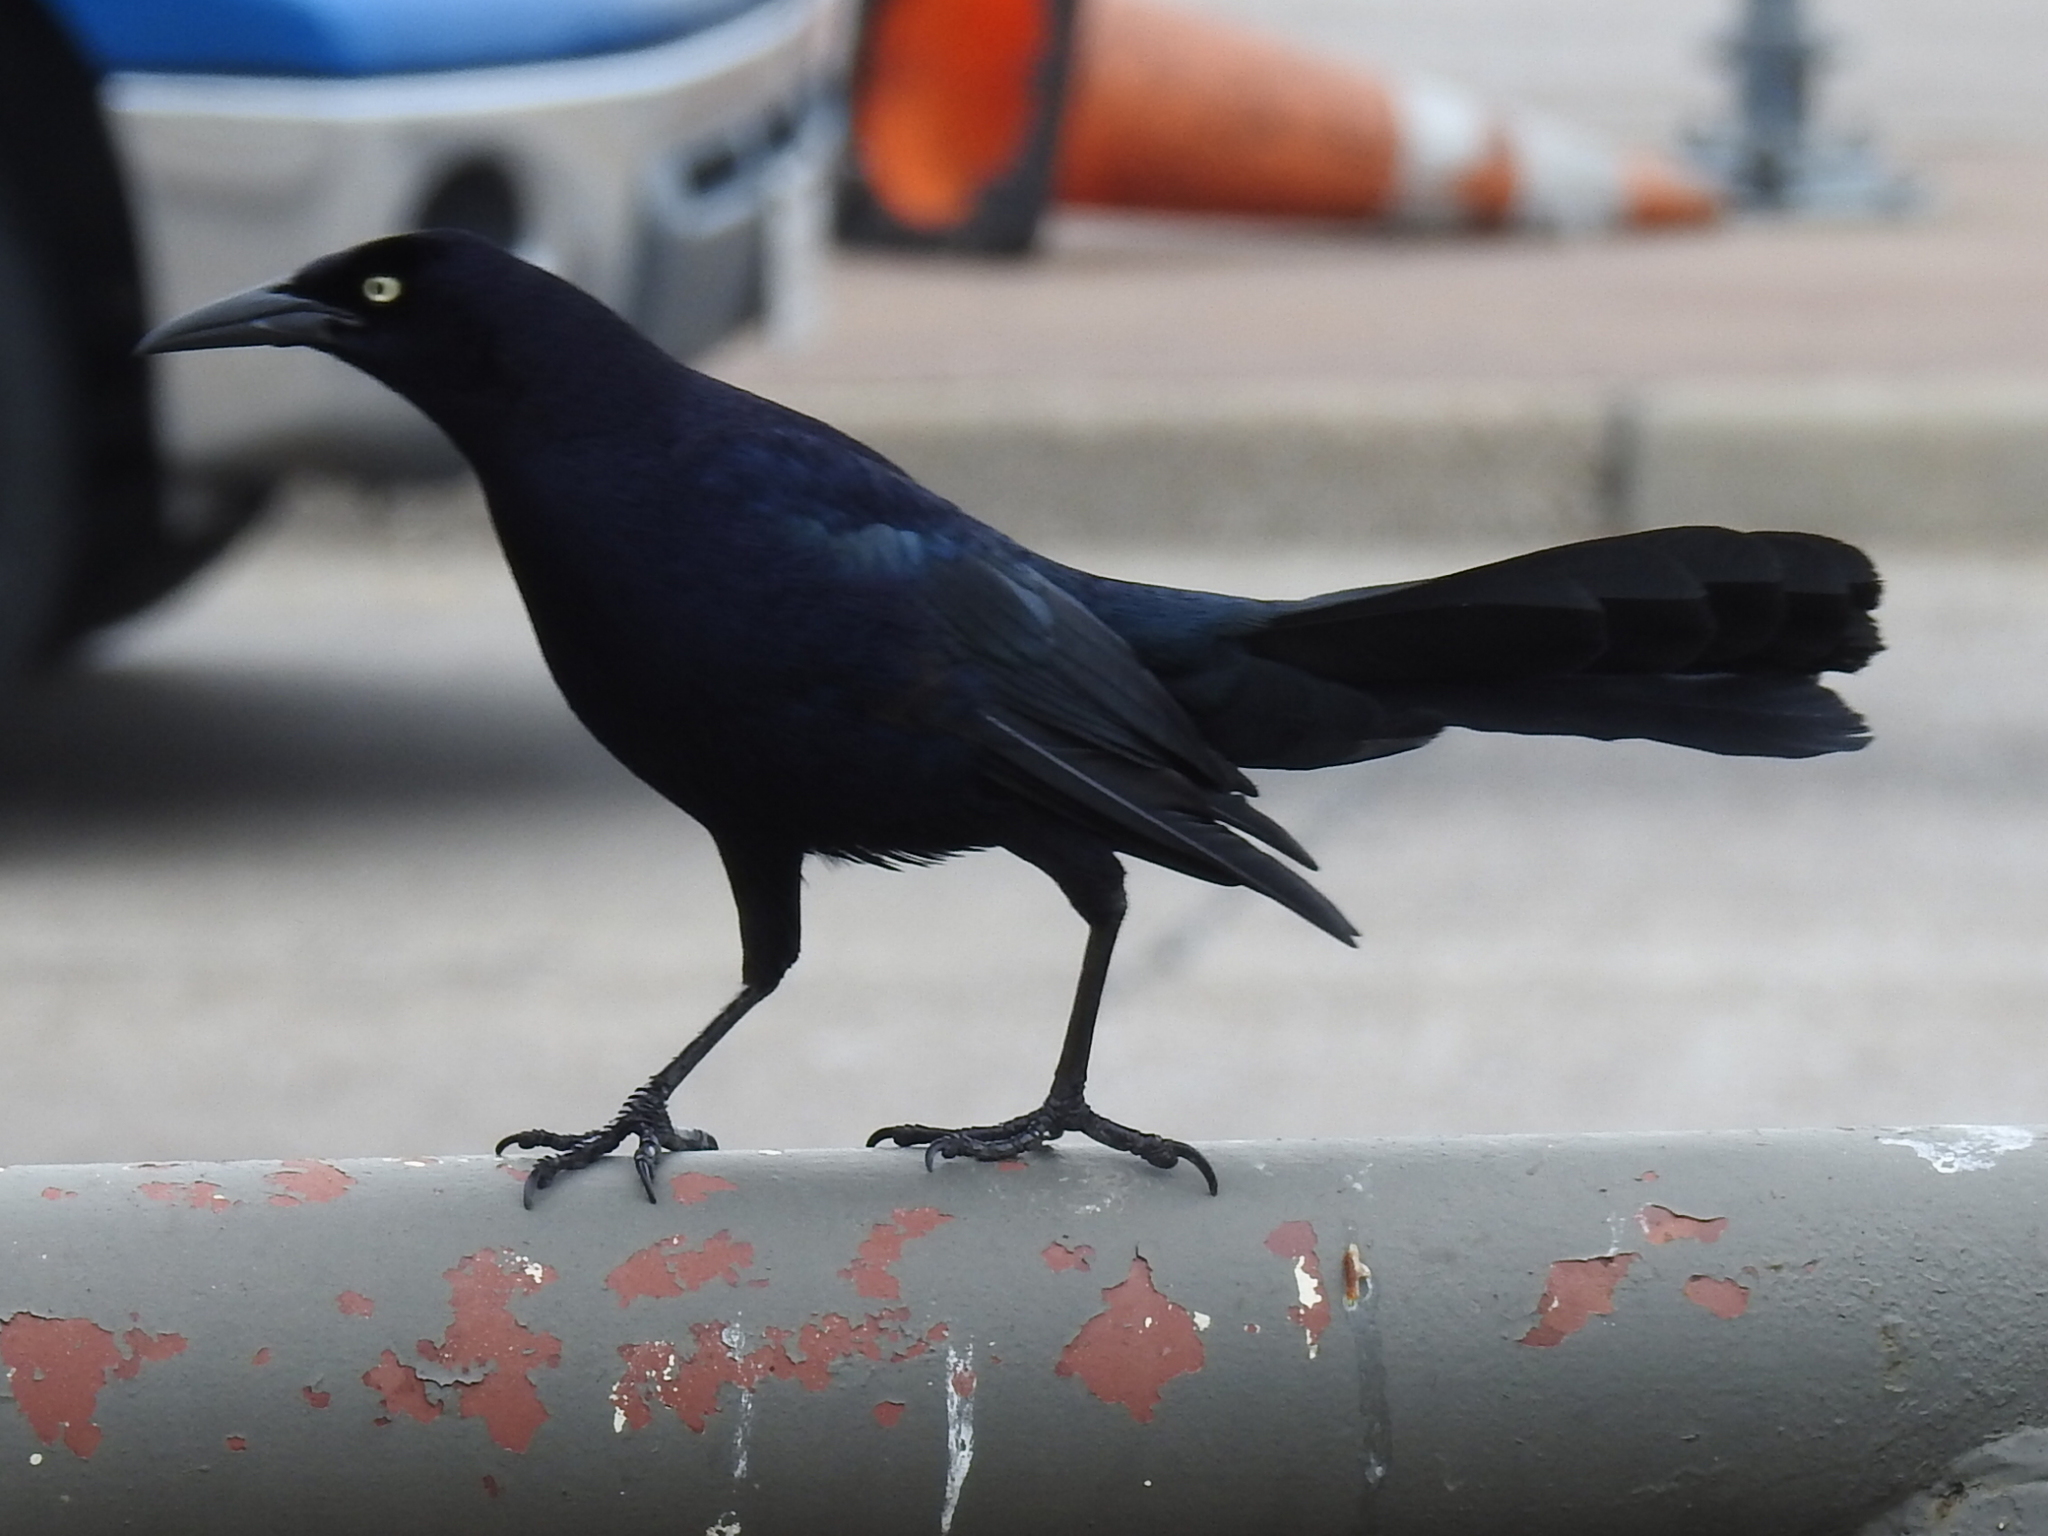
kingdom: Animalia
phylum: Chordata
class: Aves
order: Passeriformes
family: Icteridae
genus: Quiscalus
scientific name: Quiscalus mexicanus
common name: Great-tailed grackle
